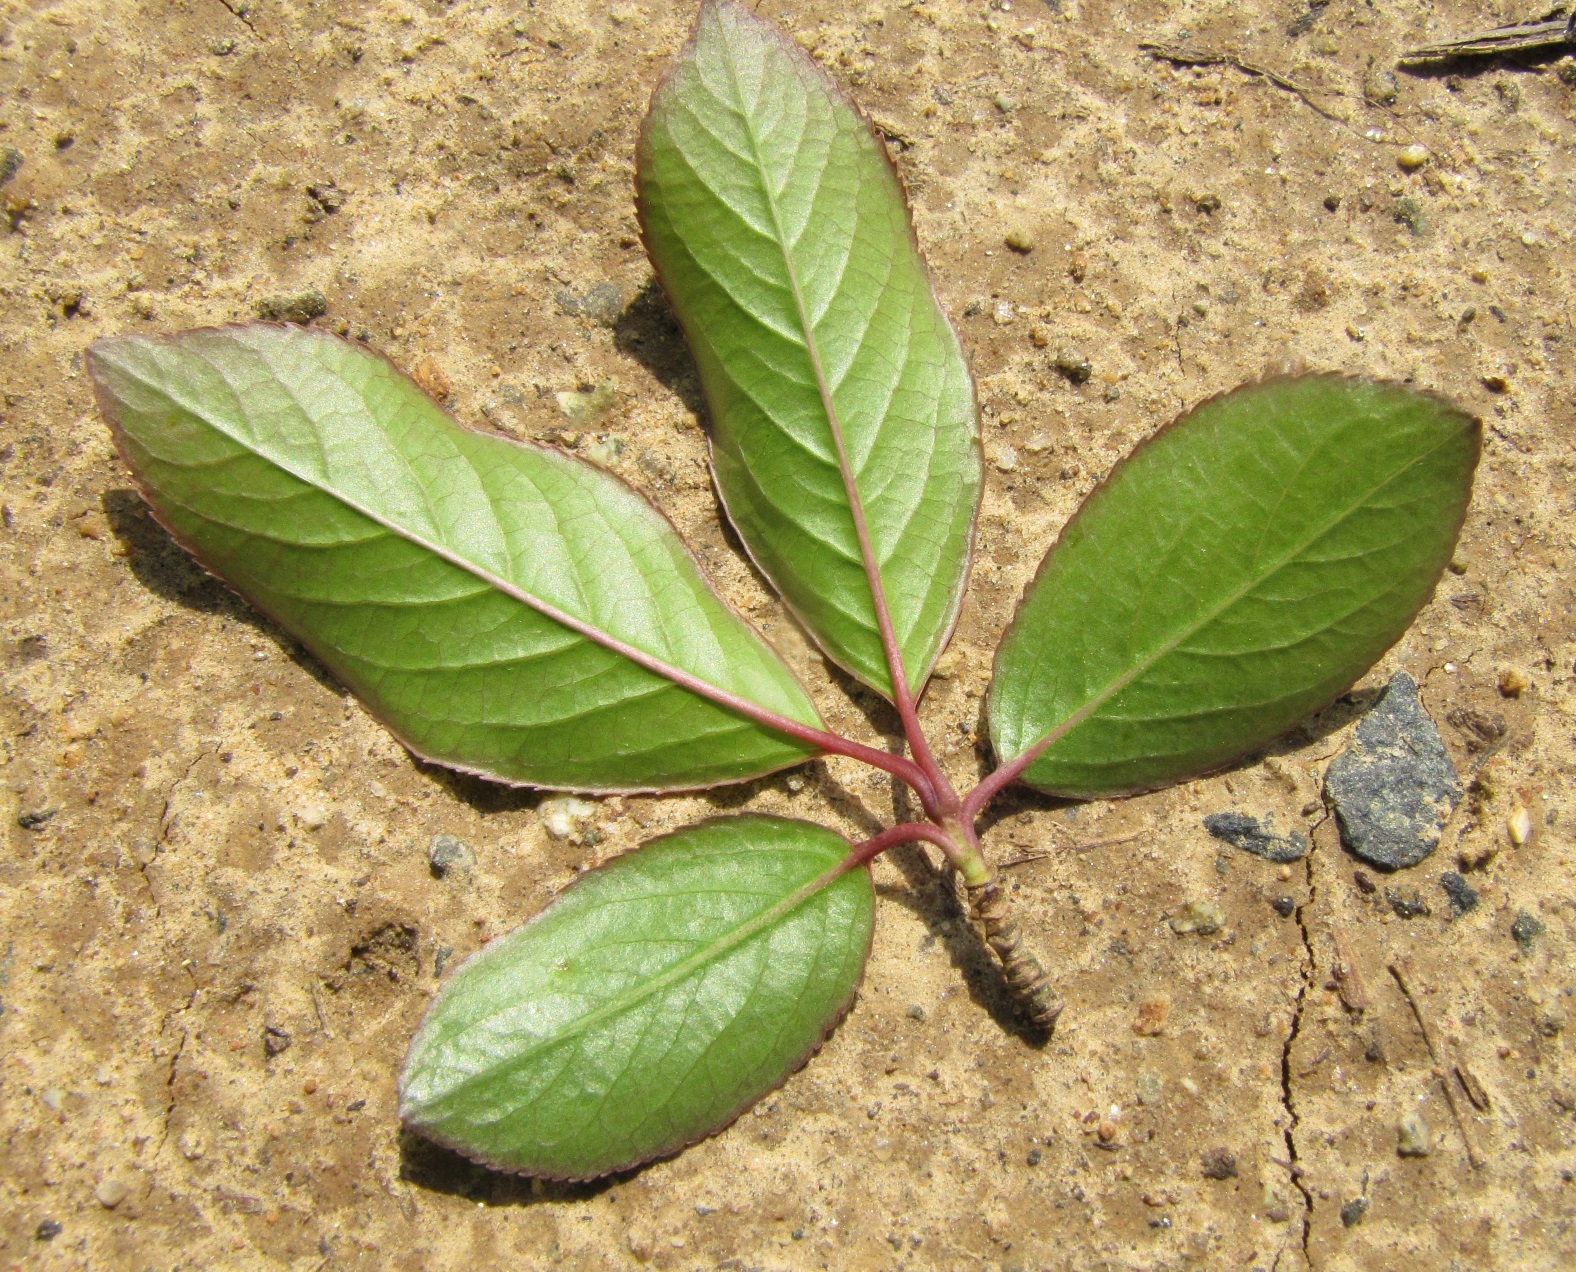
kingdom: Plantae
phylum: Tracheophyta
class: Magnoliopsida
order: Dipsacales
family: Viburnaceae
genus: Viburnum
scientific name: Viburnum prunifolium
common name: Black haw
